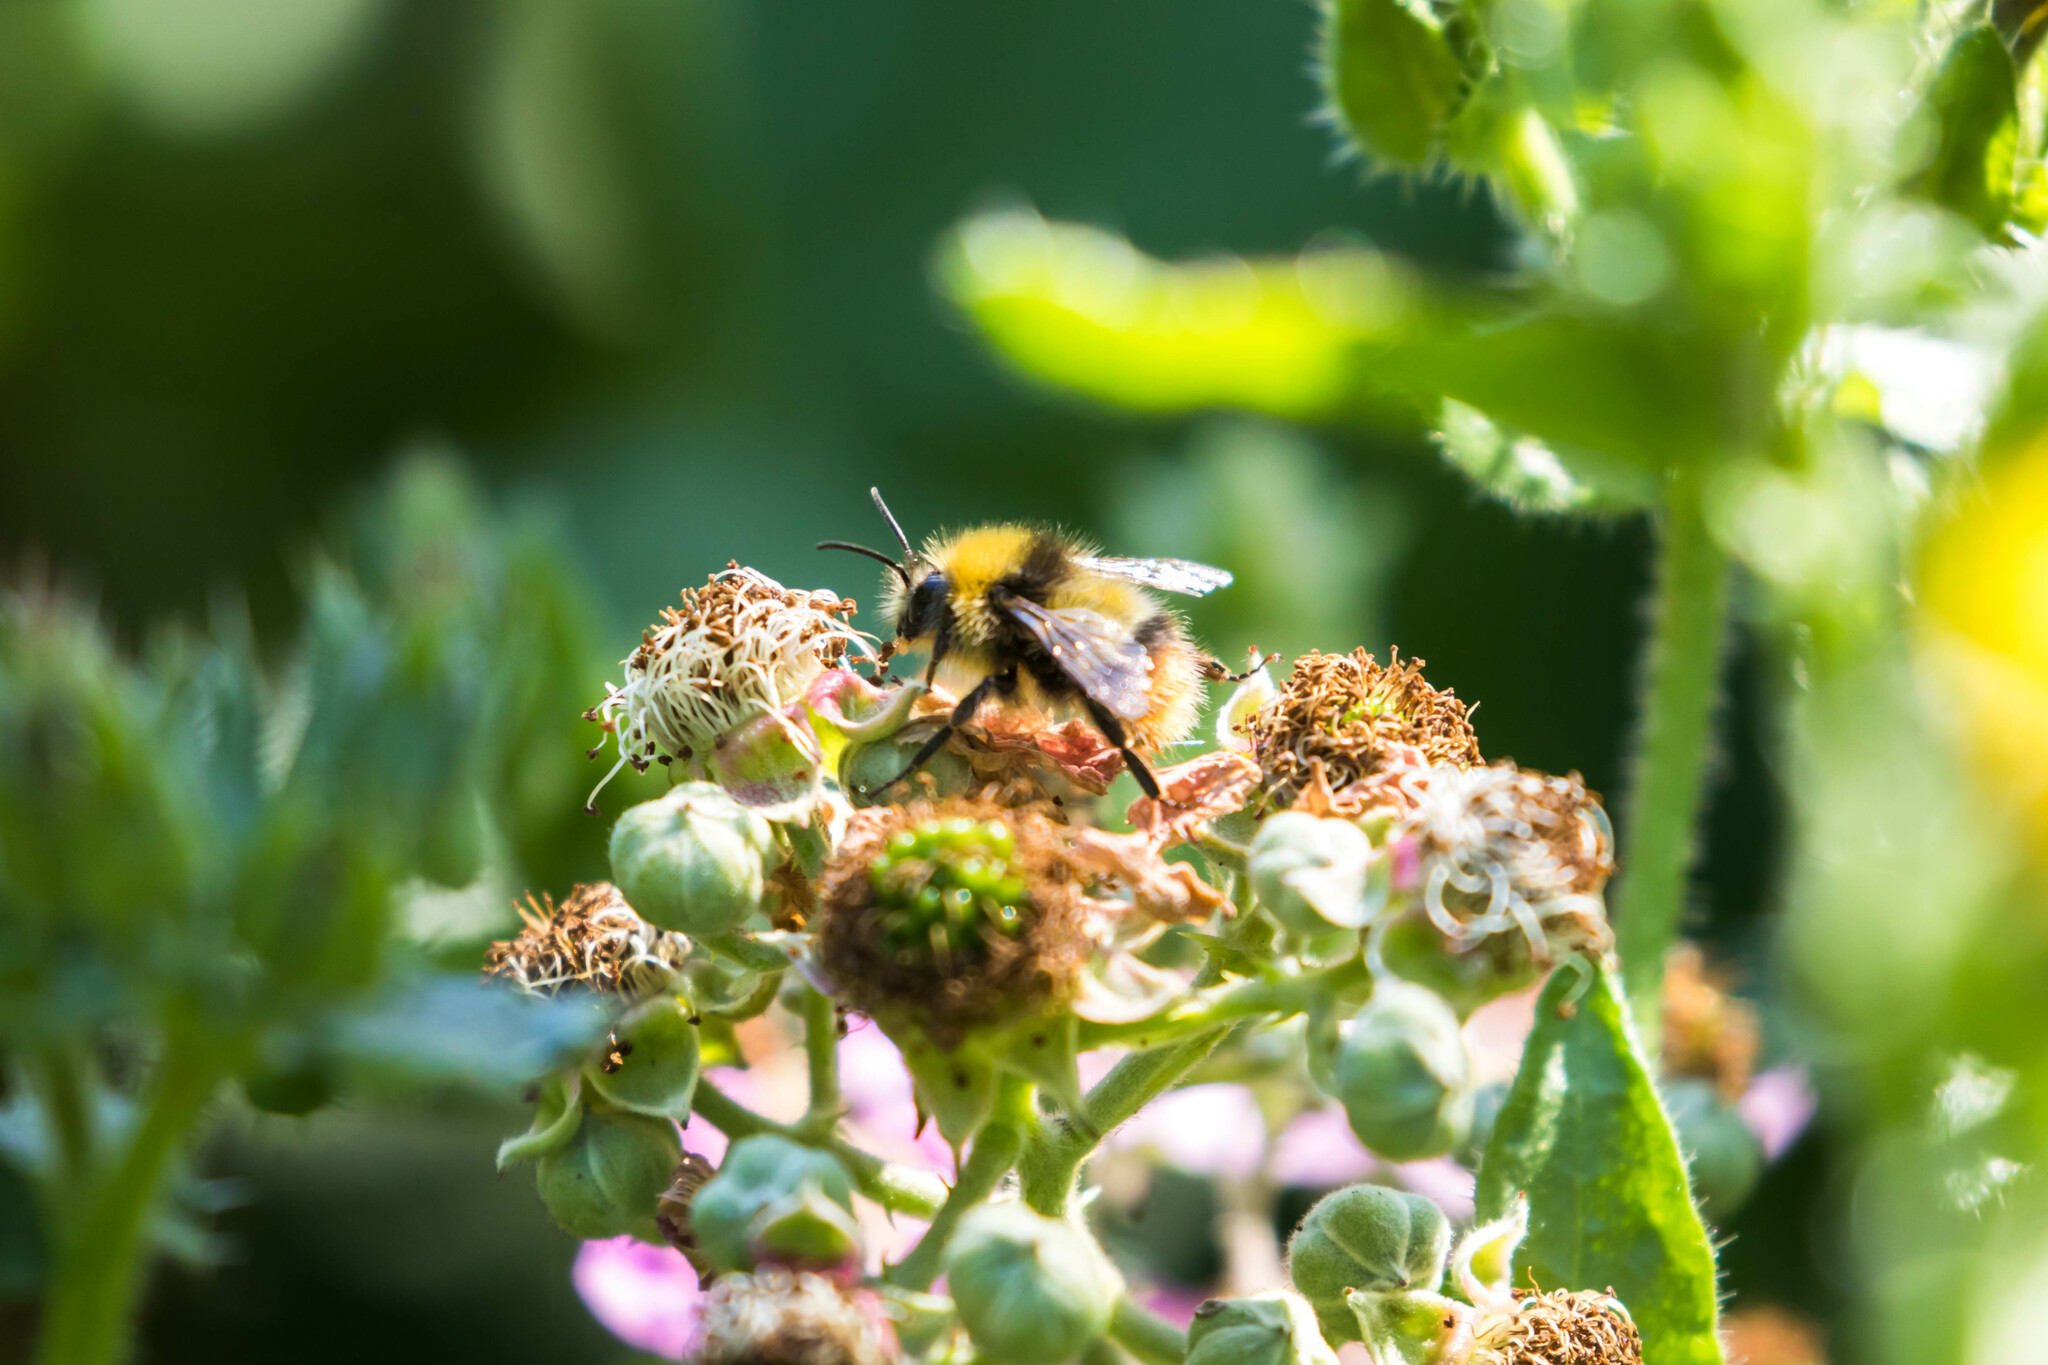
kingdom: Animalia
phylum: Arthropoda
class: Insecta
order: Hymenoptera
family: Apidae
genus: Bombus
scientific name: Bombus pratorum
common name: Early humble-bee
